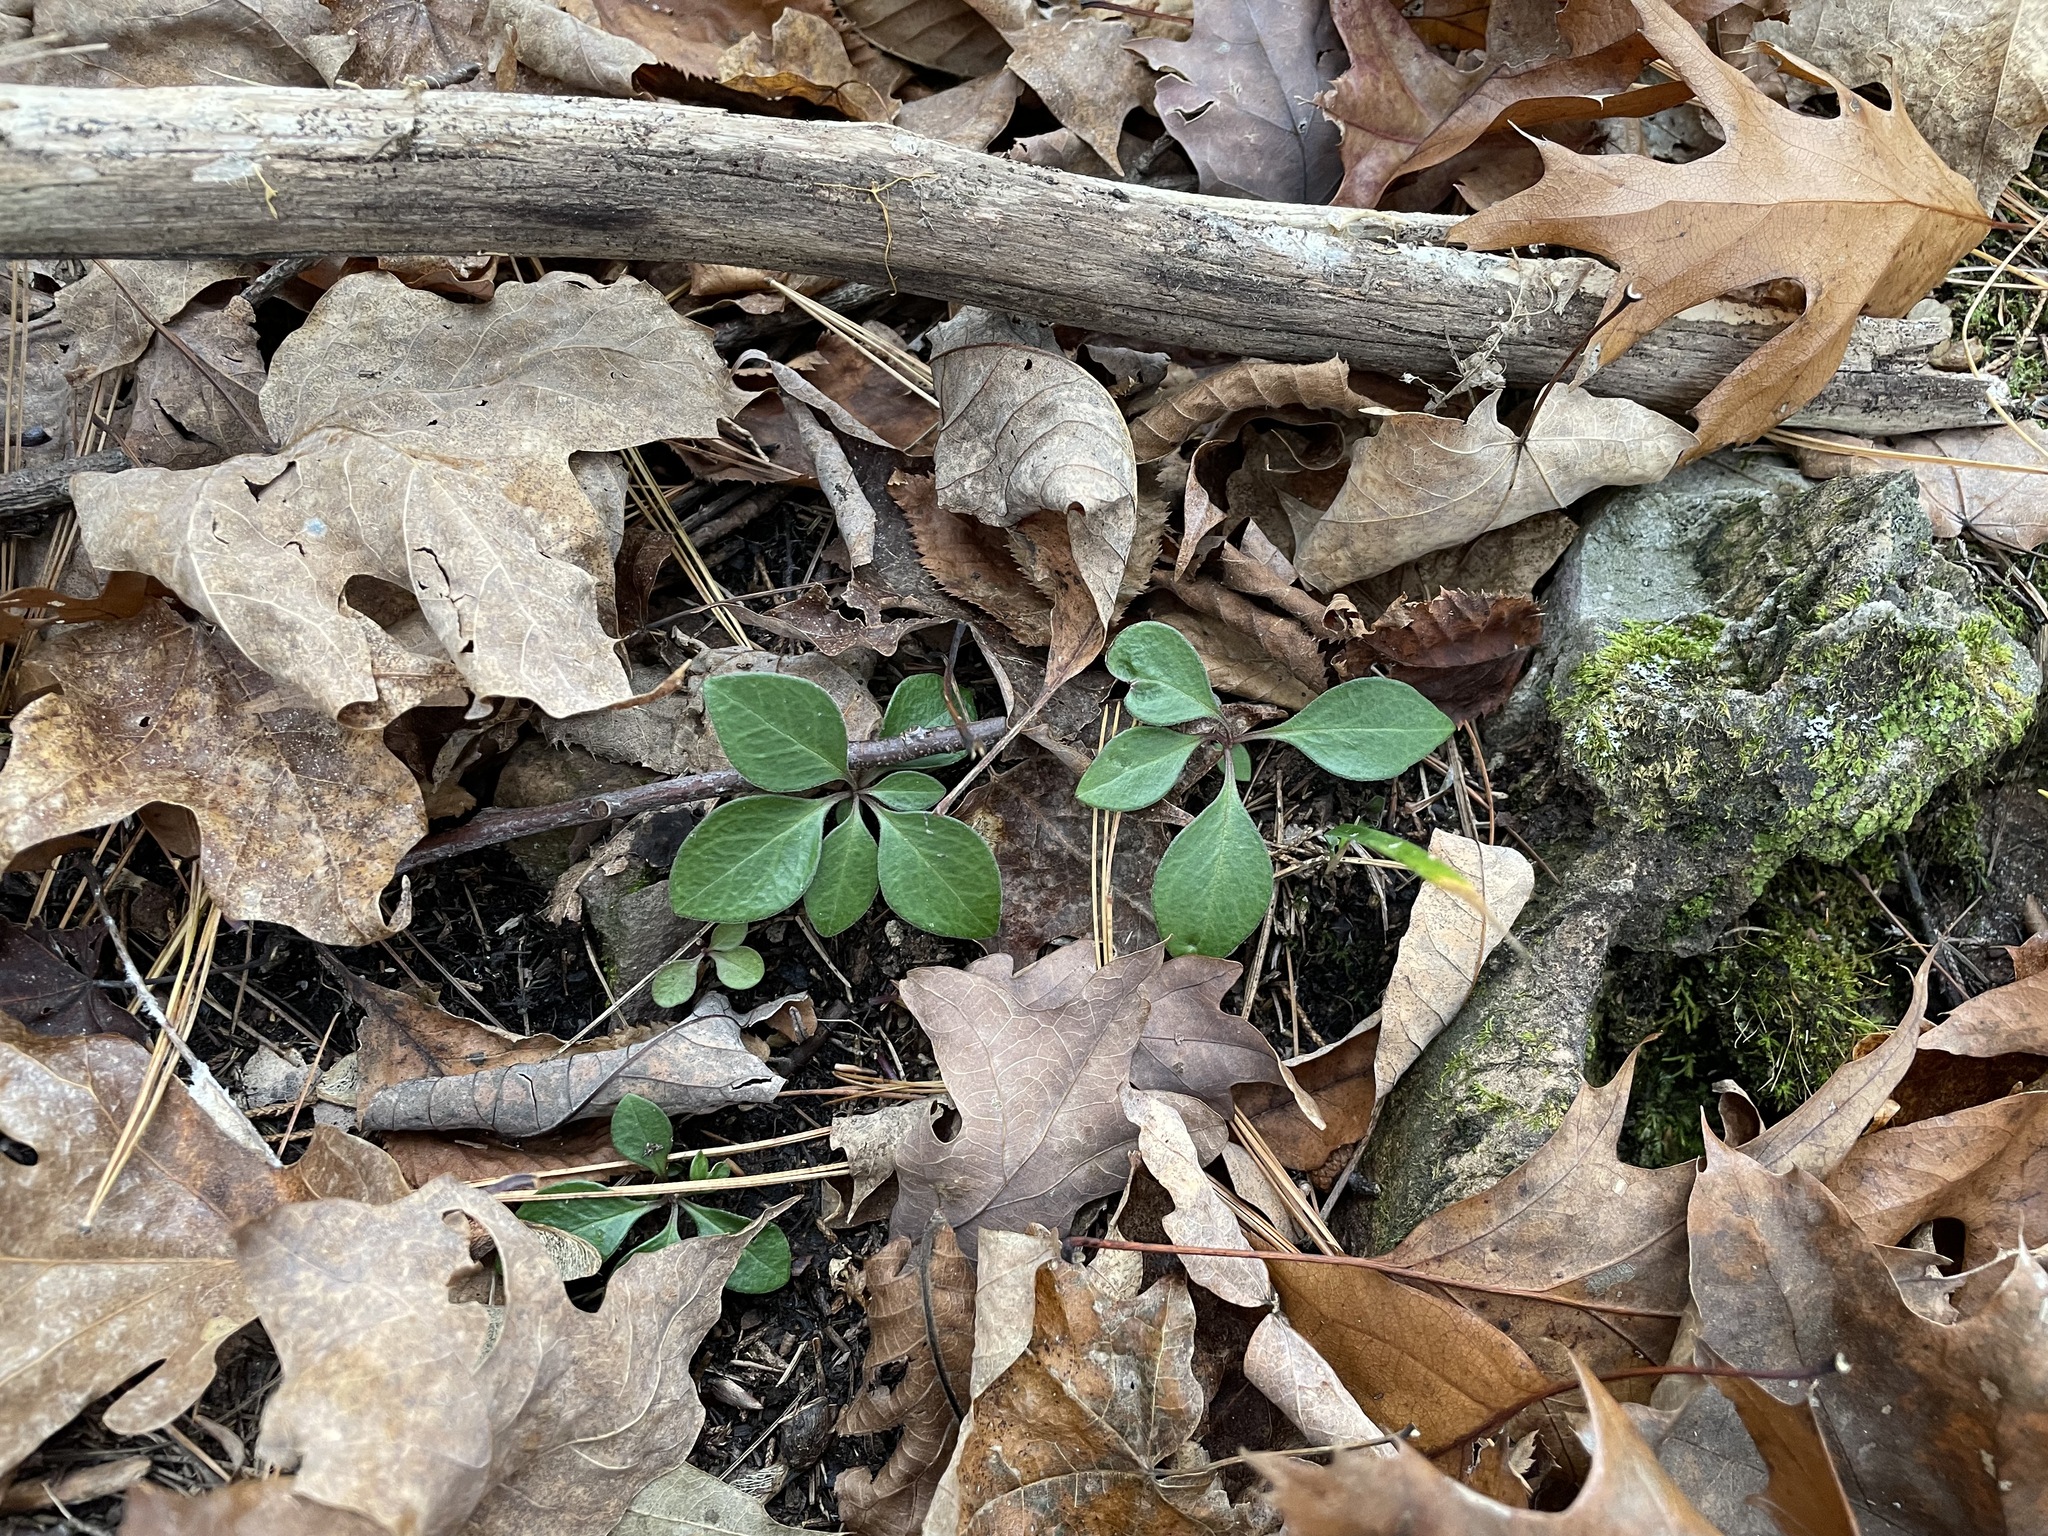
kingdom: Plantae
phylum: Tracheophyta
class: Magnoliopsida
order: Fabales
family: Polygalaceae
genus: Polygaloides
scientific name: Polygaloides paucifolia
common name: Bird-on-the-wing
